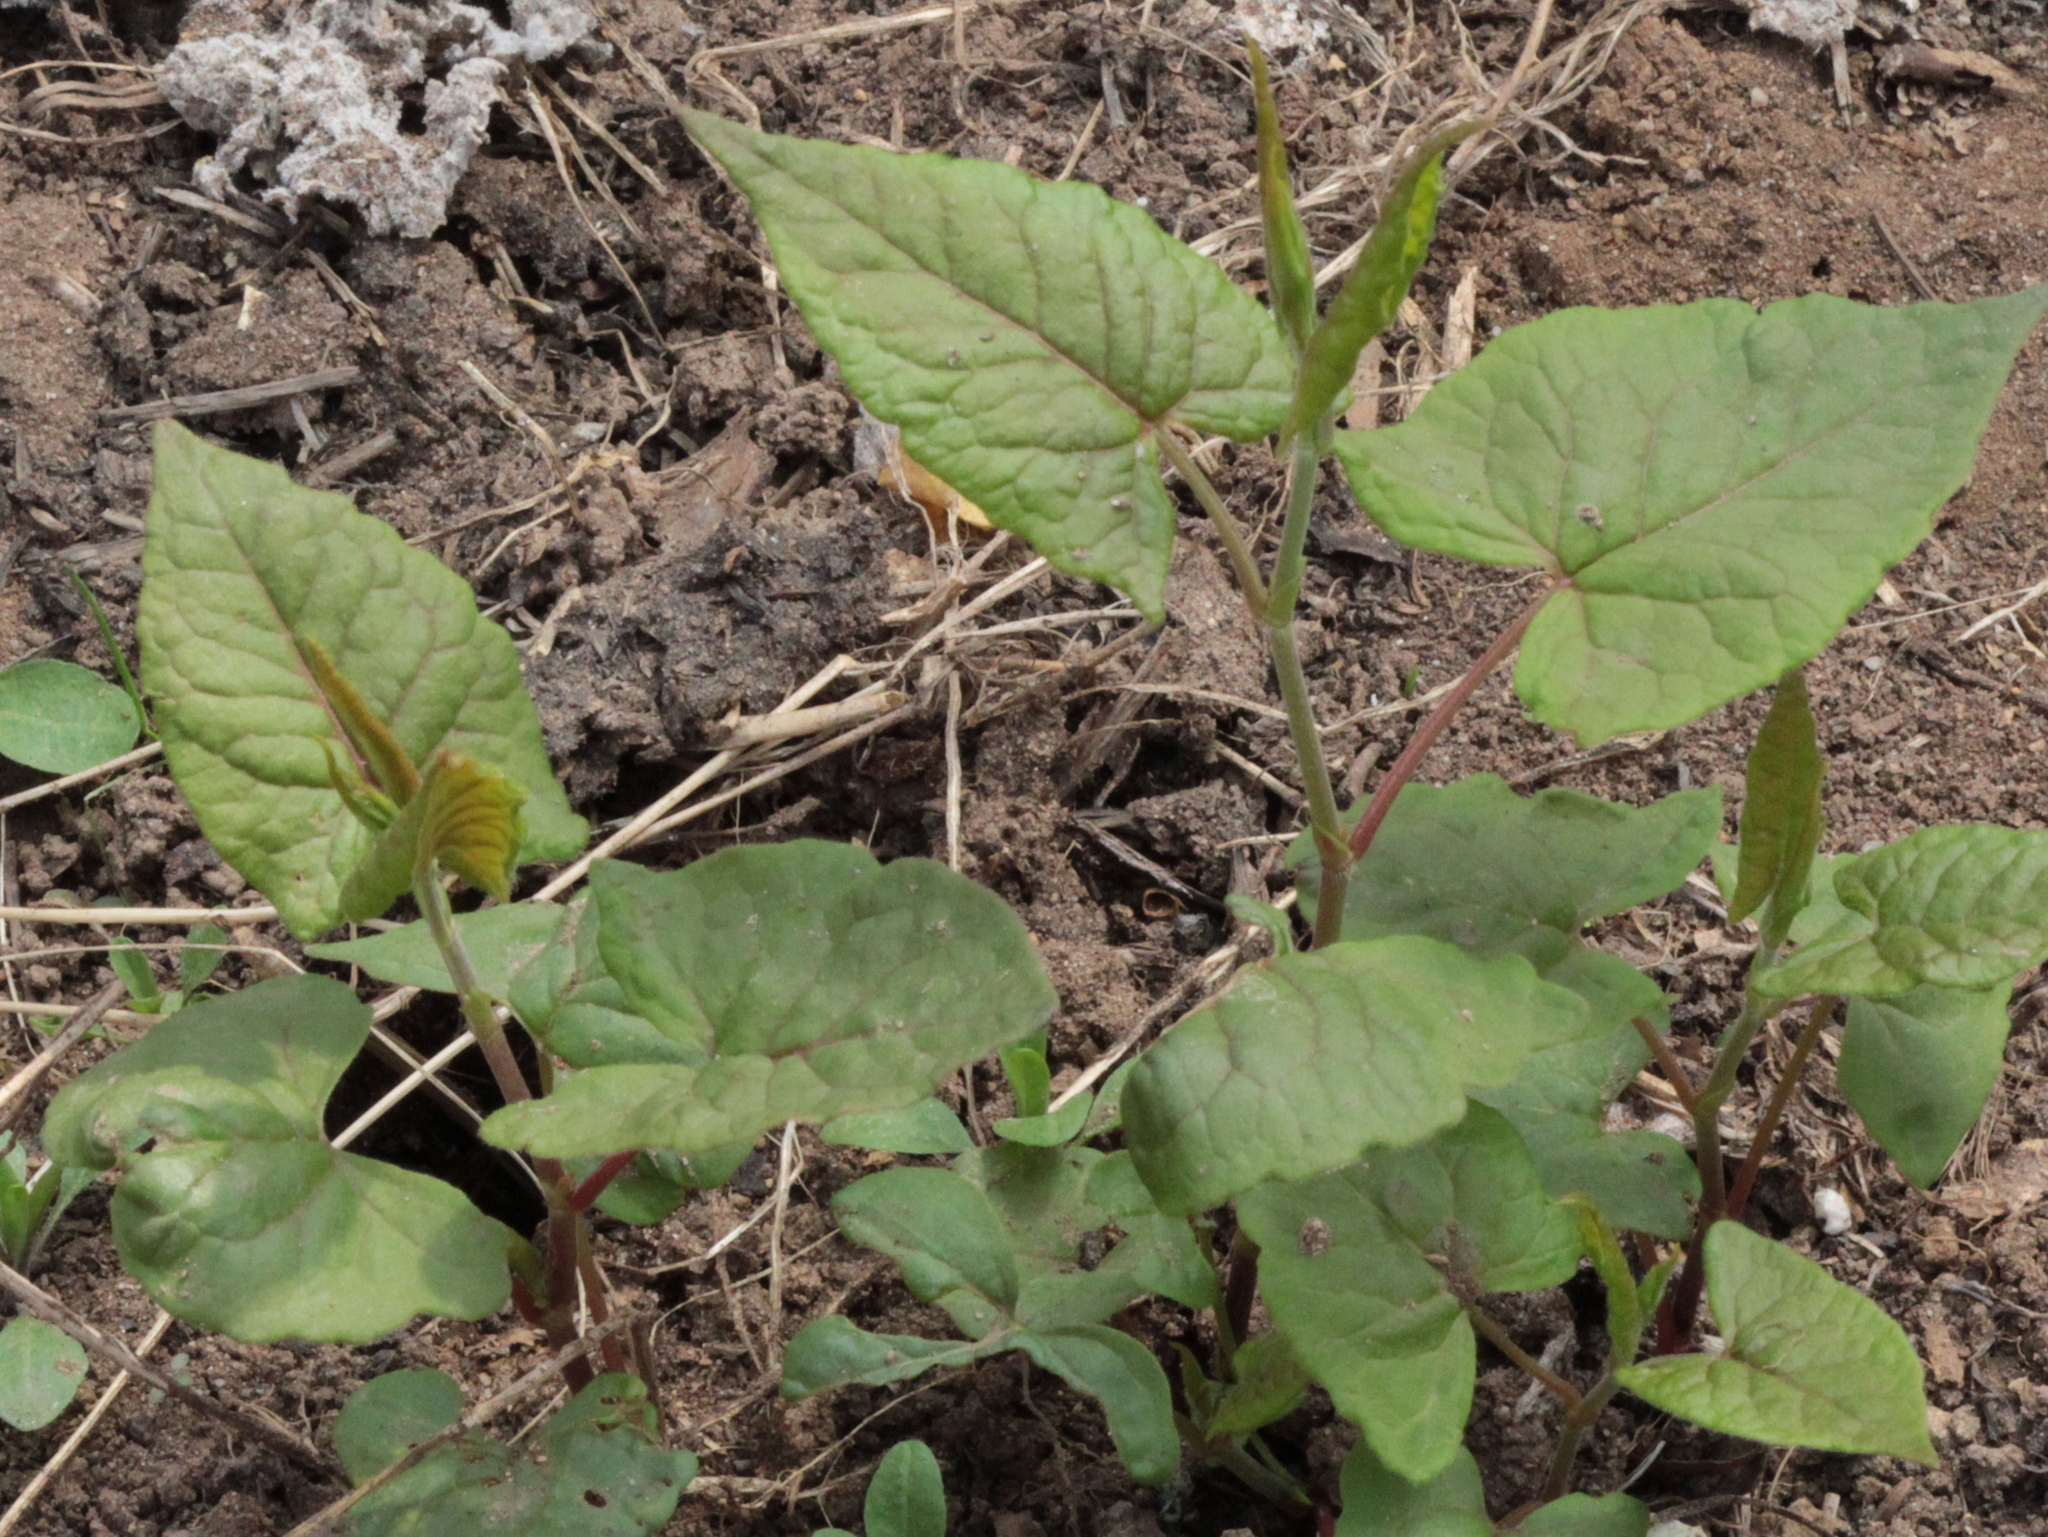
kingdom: Plantae
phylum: Tracheophyta
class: Magnoliopsida
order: Caryophyllales
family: Polygonaceae
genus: Parogonum
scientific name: Parogonum ciliinode
